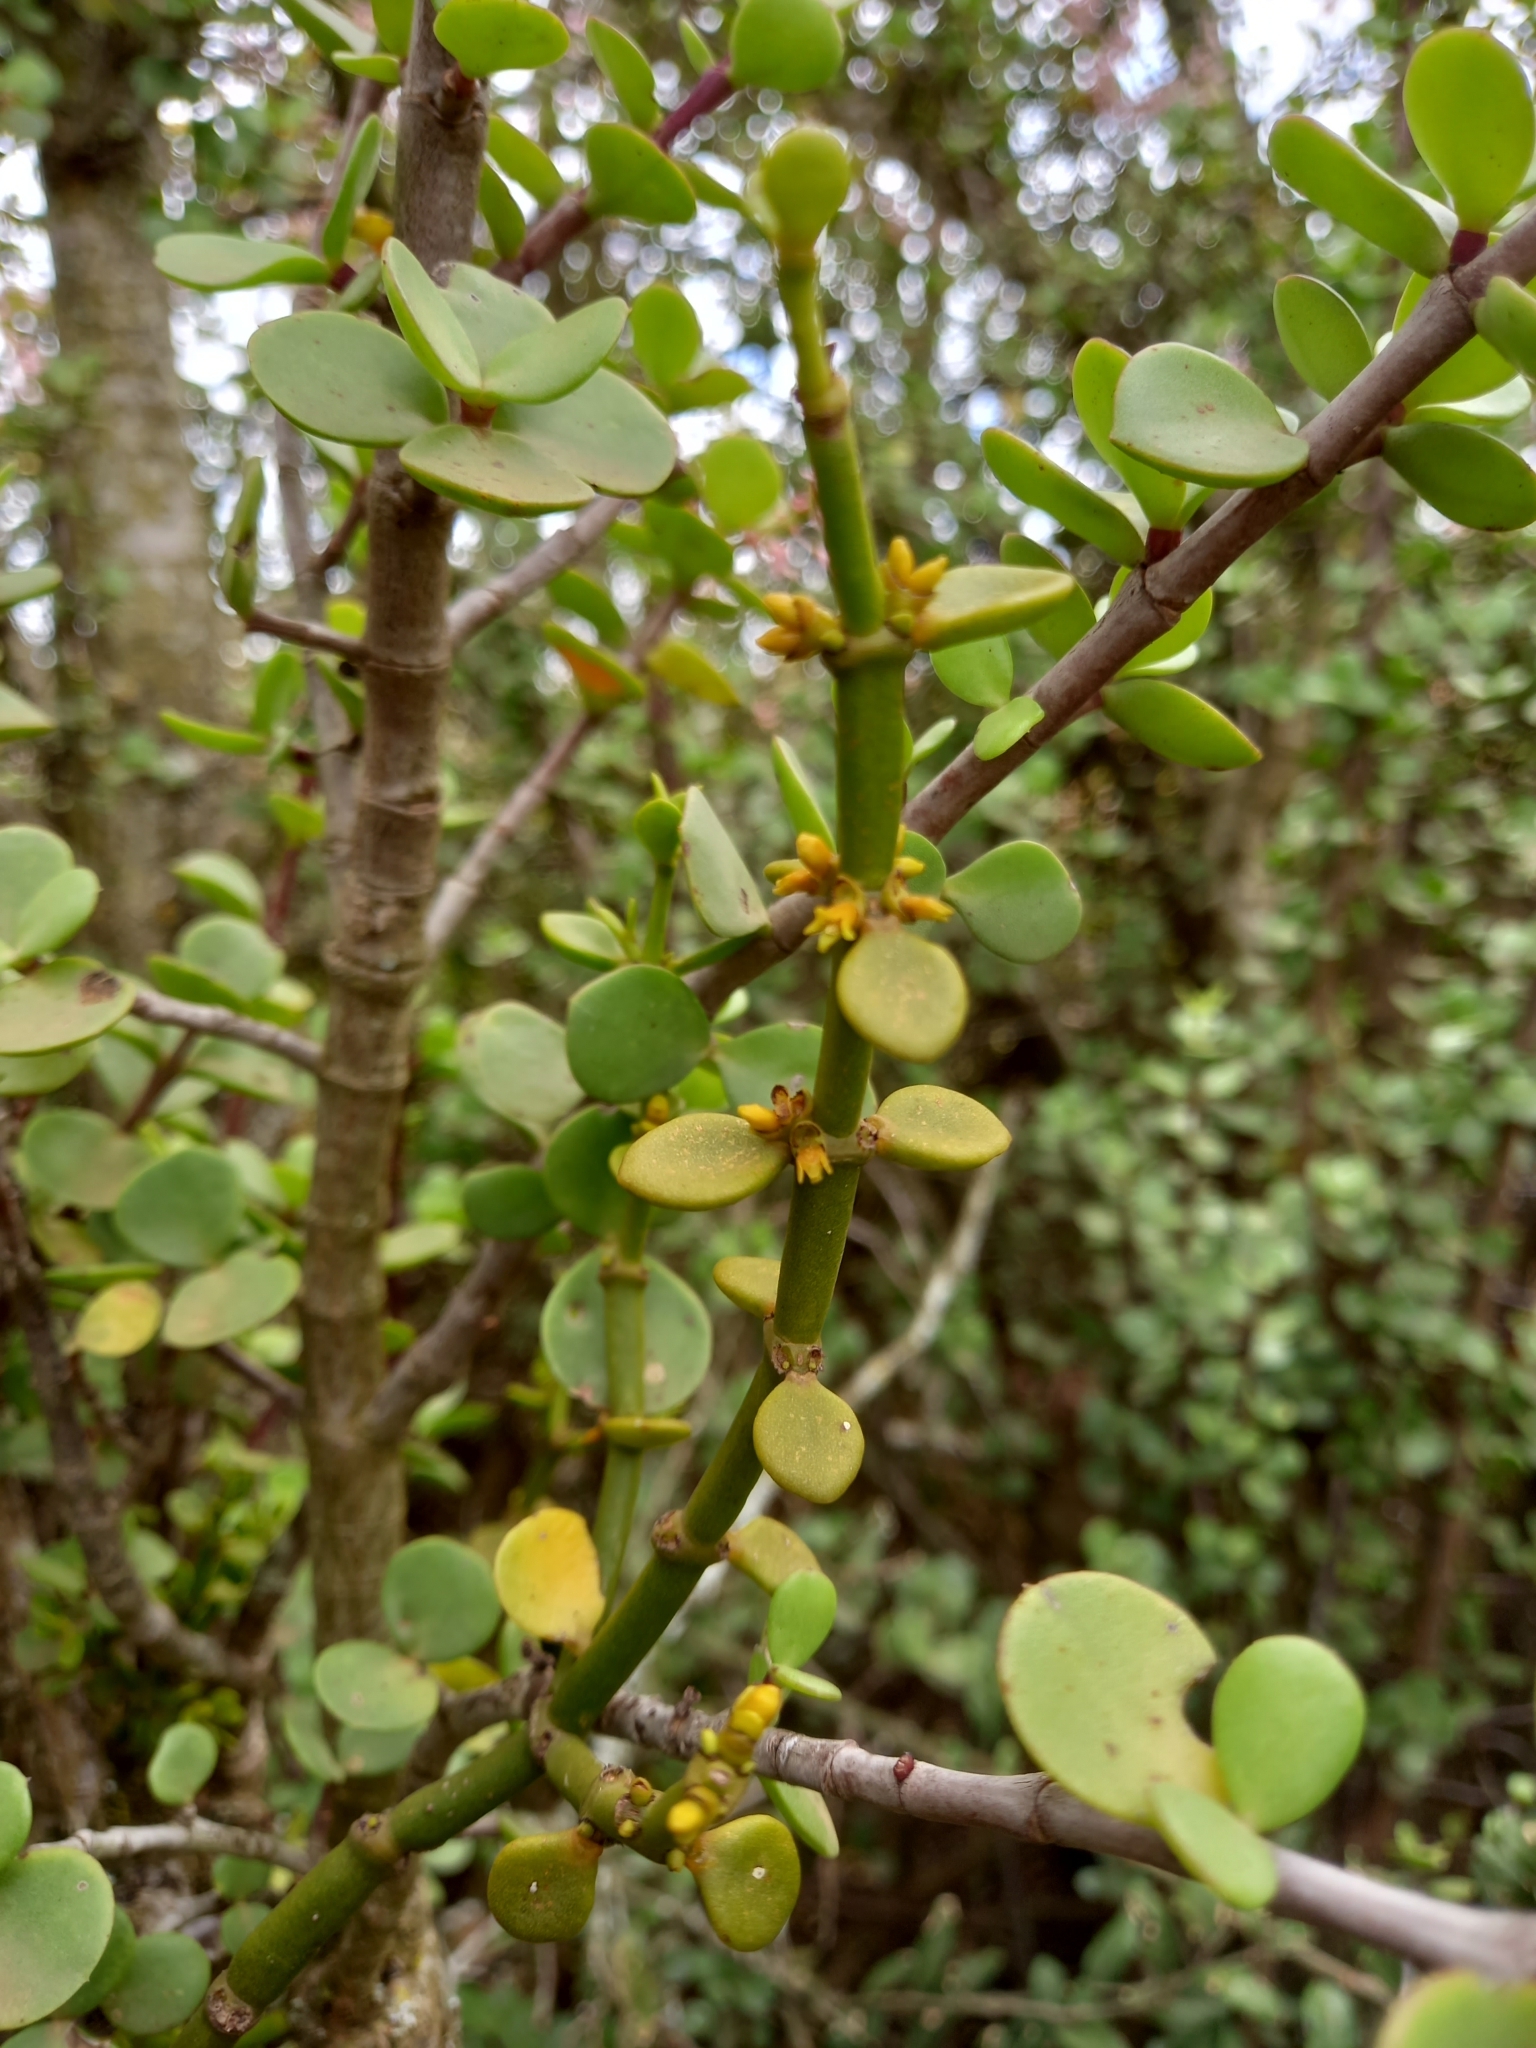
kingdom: Plantae
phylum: Tracheophyta
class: Magnoliopsida
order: Santalales
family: Viscaceae
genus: Viscum
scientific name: Viscum crassulae
